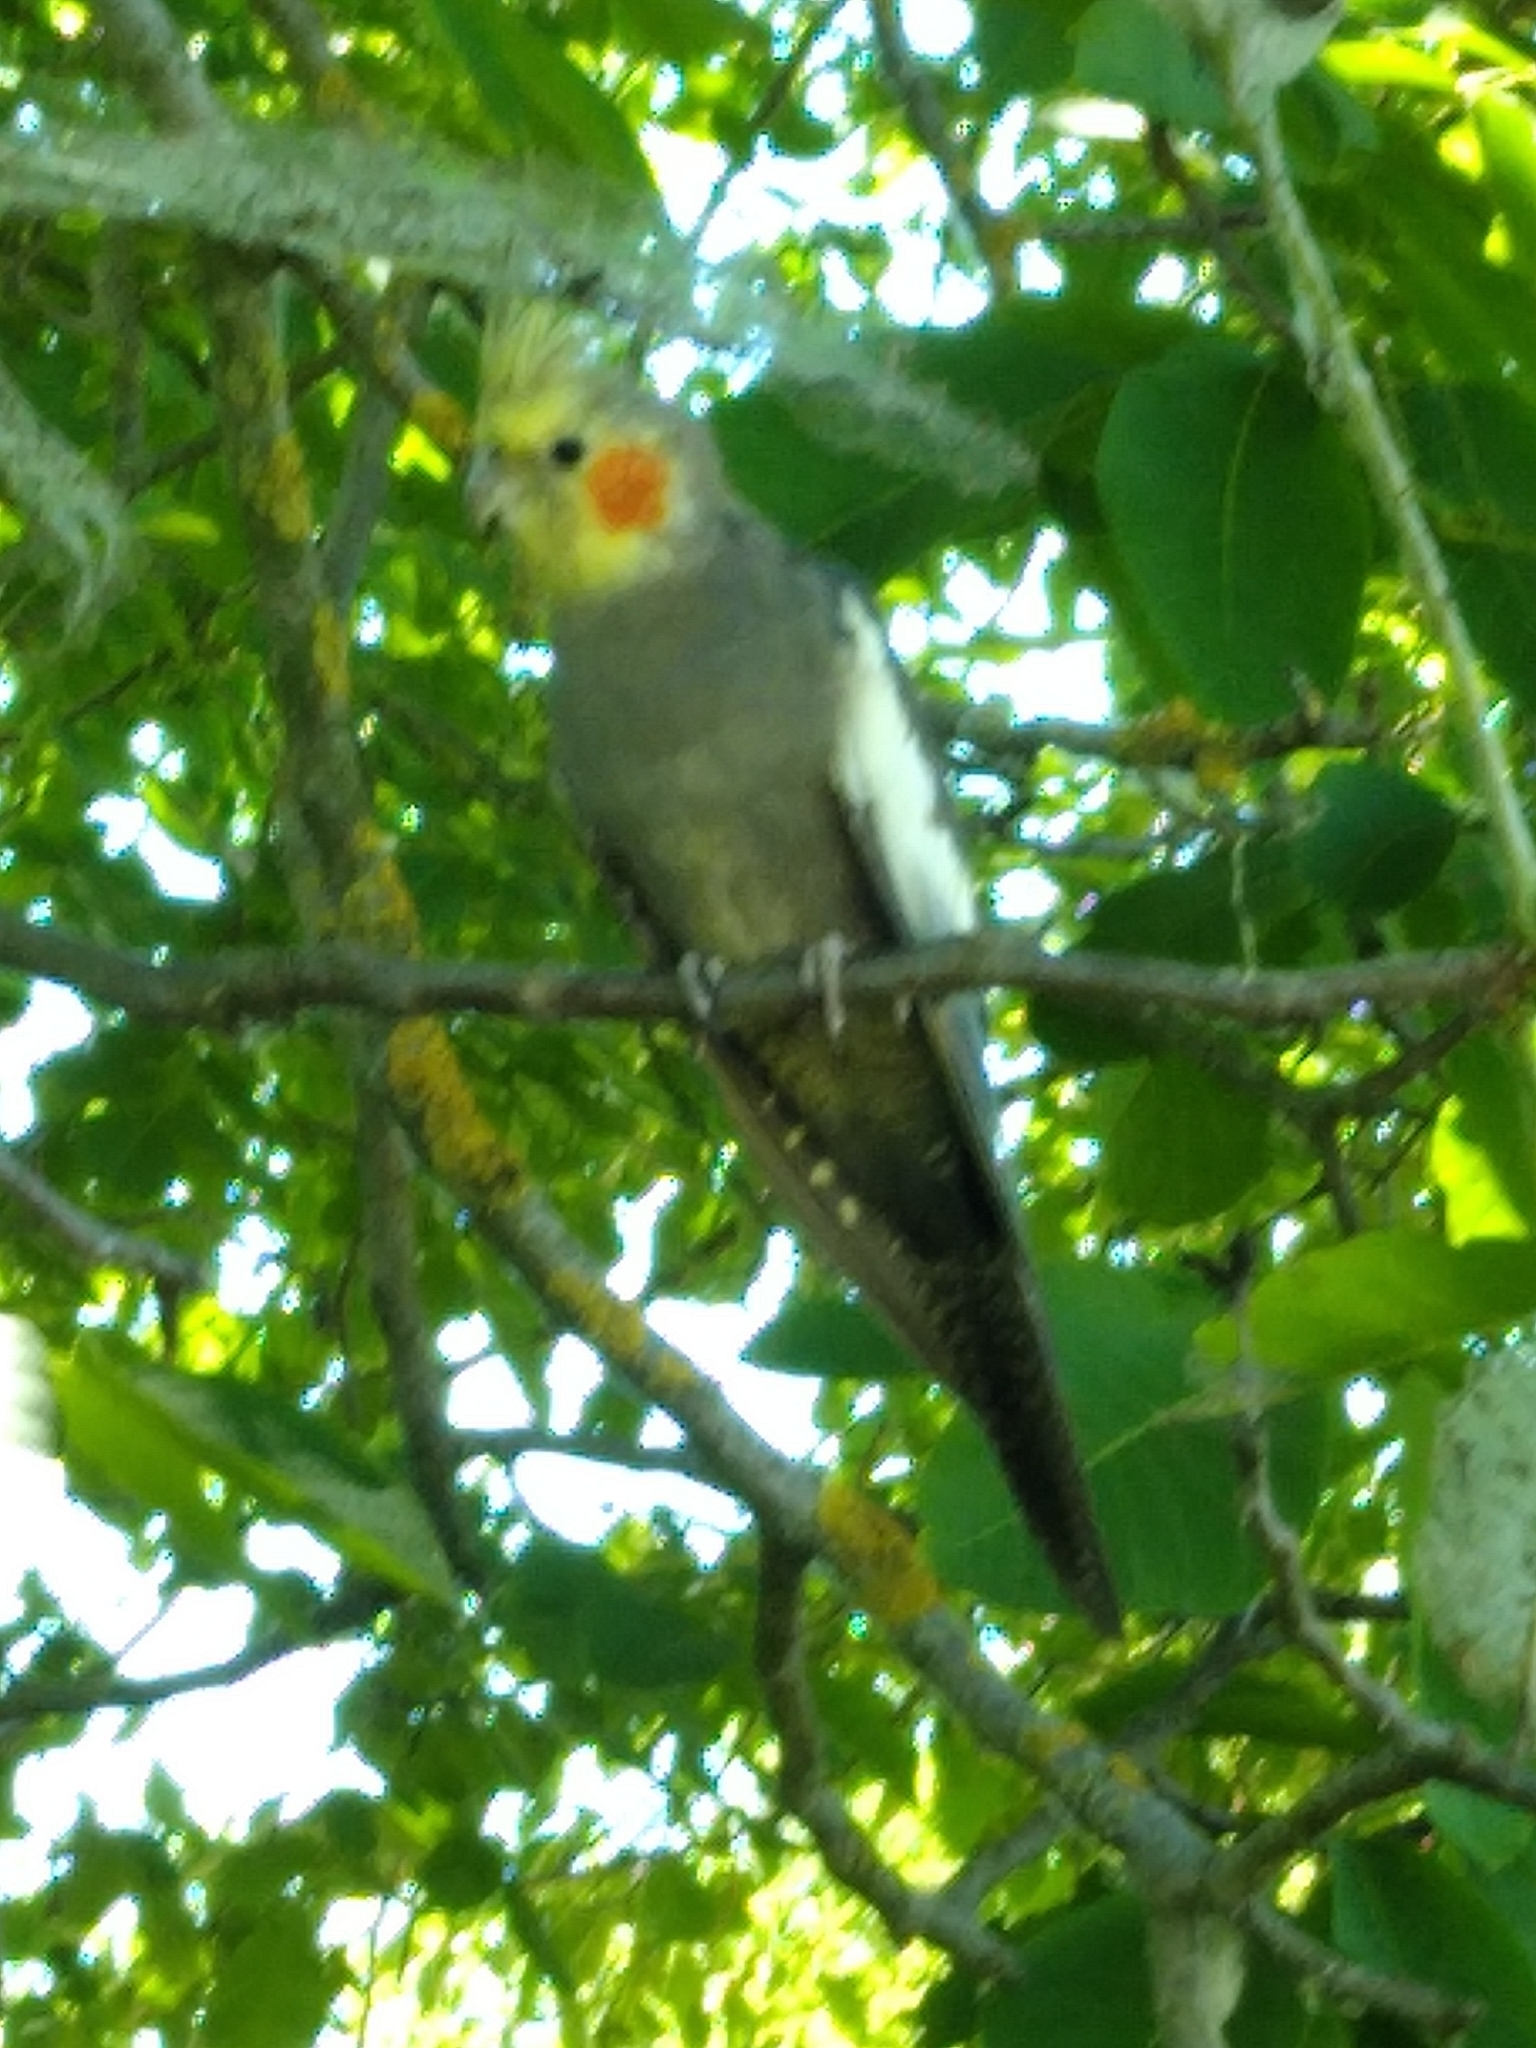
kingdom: Animalia
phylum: Chordata
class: Aves
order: Psittaciformes
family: Psittacidae
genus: Nymphicus
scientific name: Nymphicus hollandicus
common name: Cockatiel
